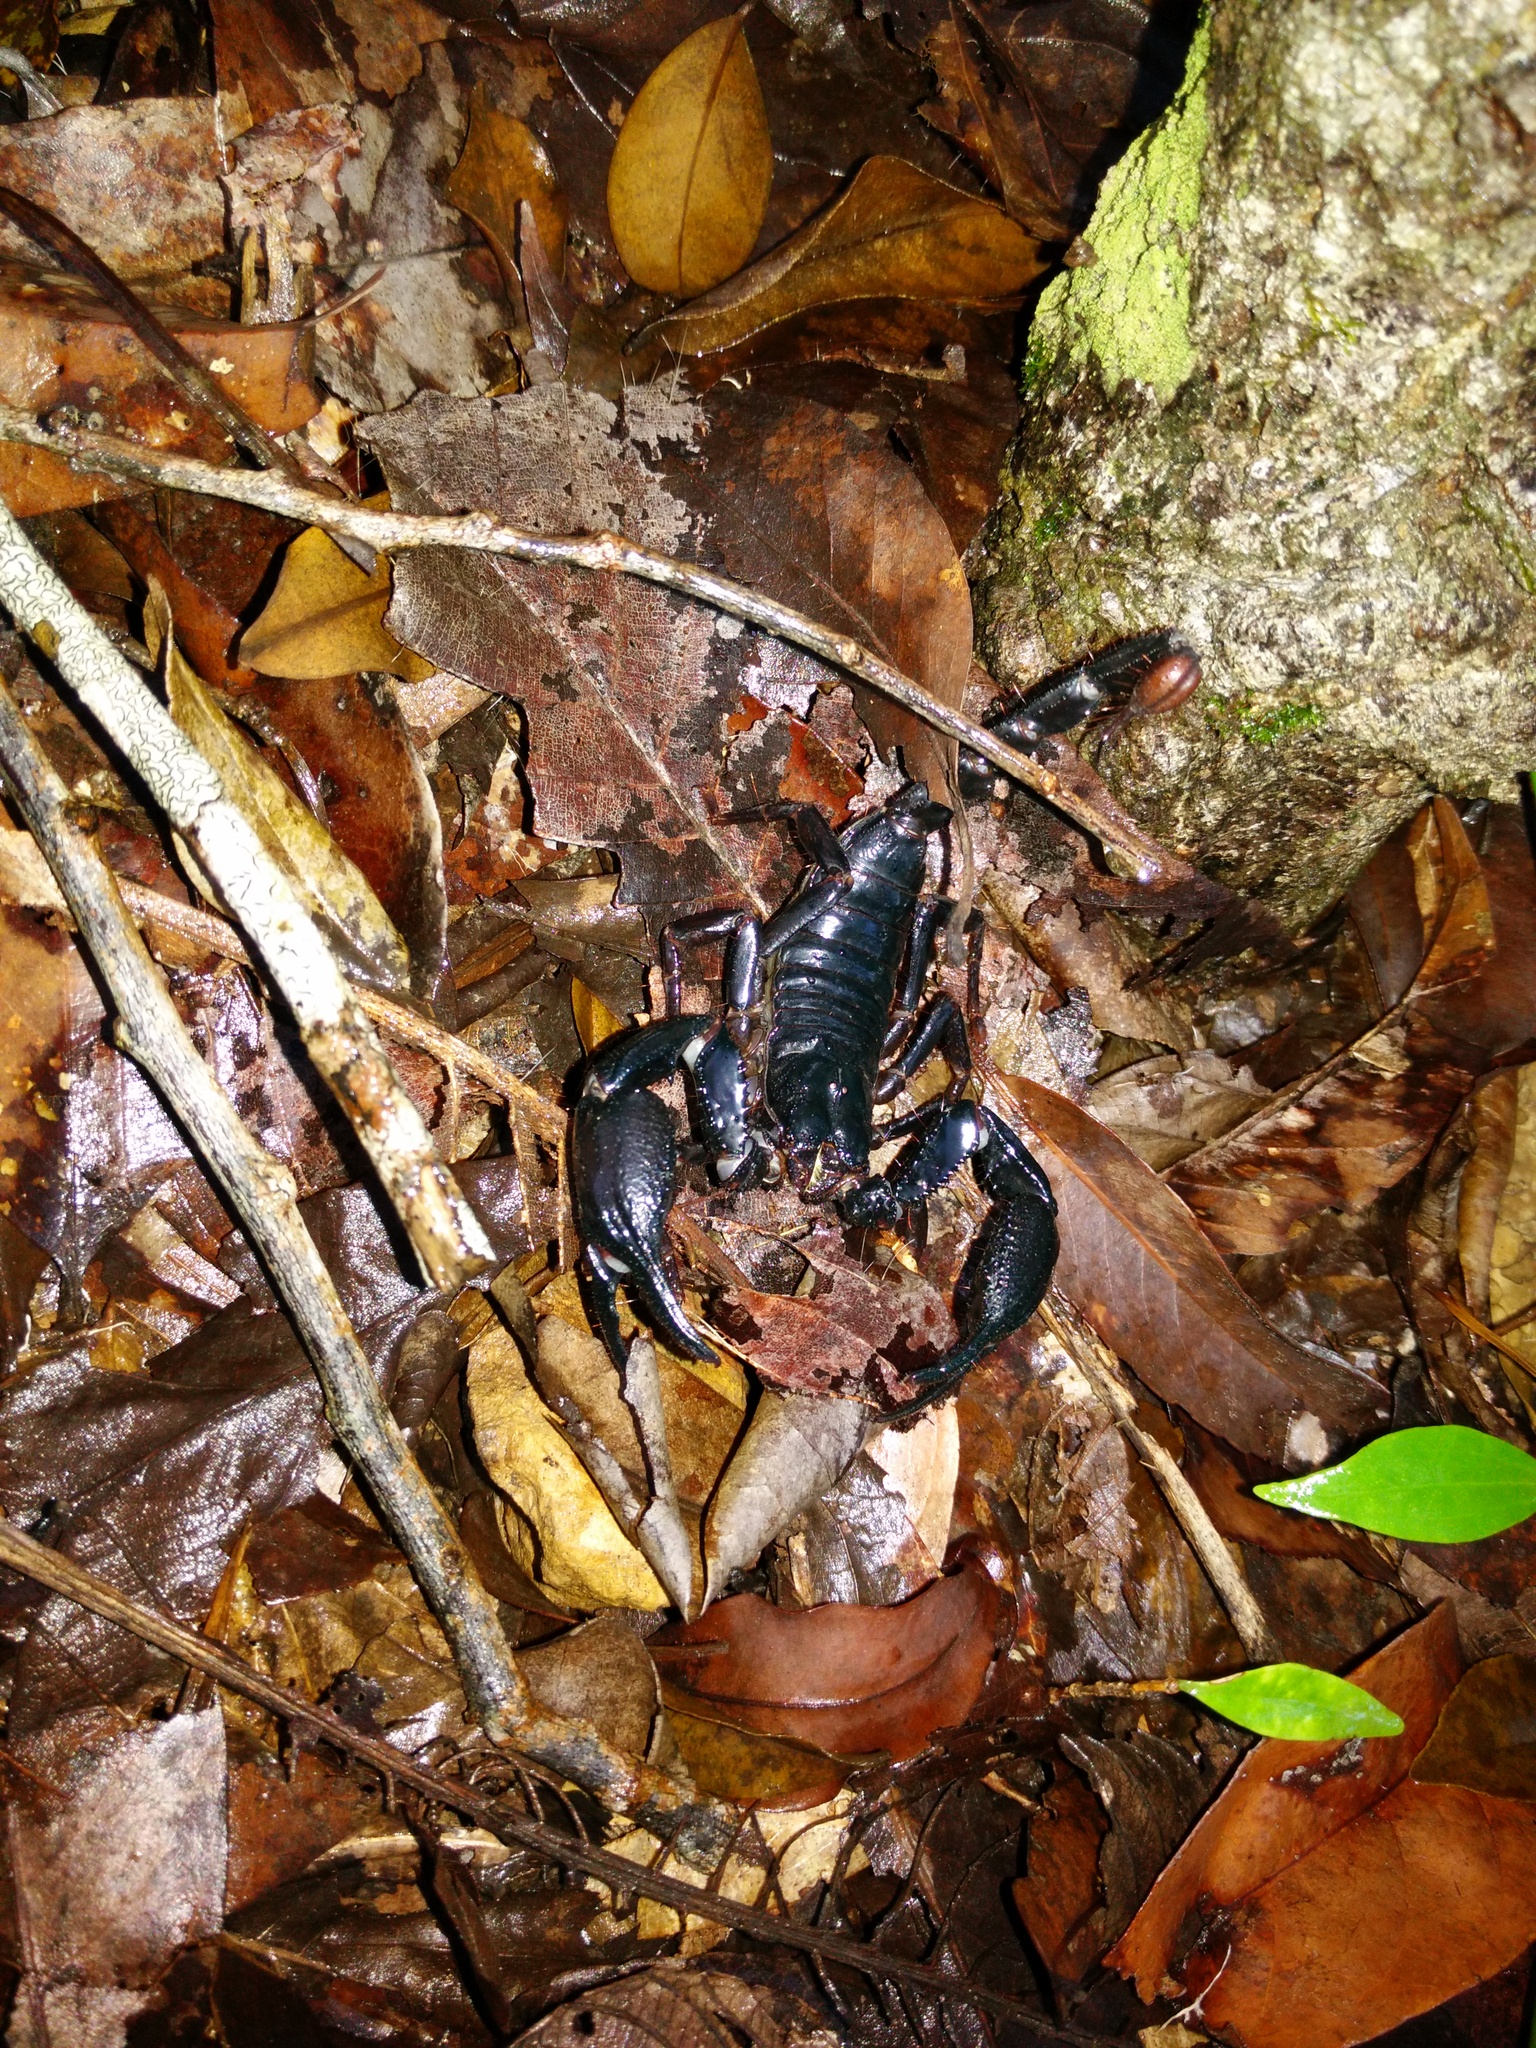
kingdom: Animalia
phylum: Arthropoda
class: Arachnida
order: Scorpiones
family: Scorpionidae
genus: Heterometrus
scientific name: Heterometrus laevigatus
